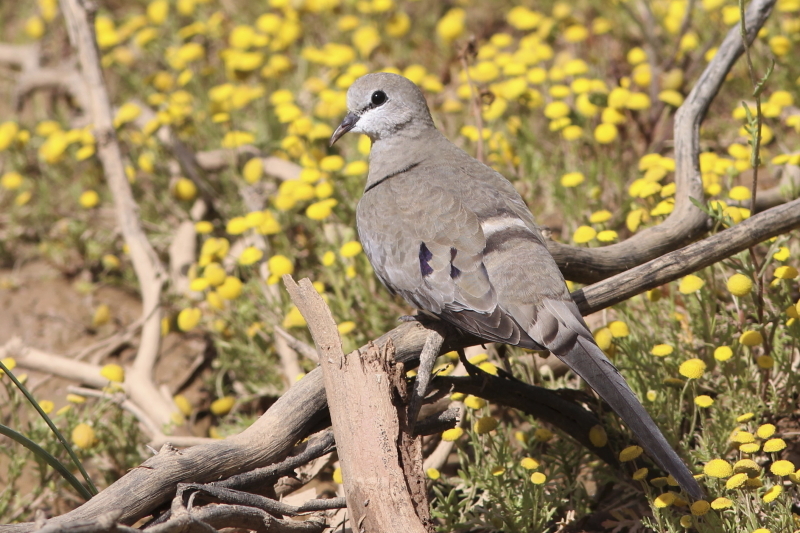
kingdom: Animalia
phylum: Chordata
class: Aves
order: Columbiformes
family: Columbidae
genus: Oena
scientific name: Oena capensis
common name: Namaqua dove
